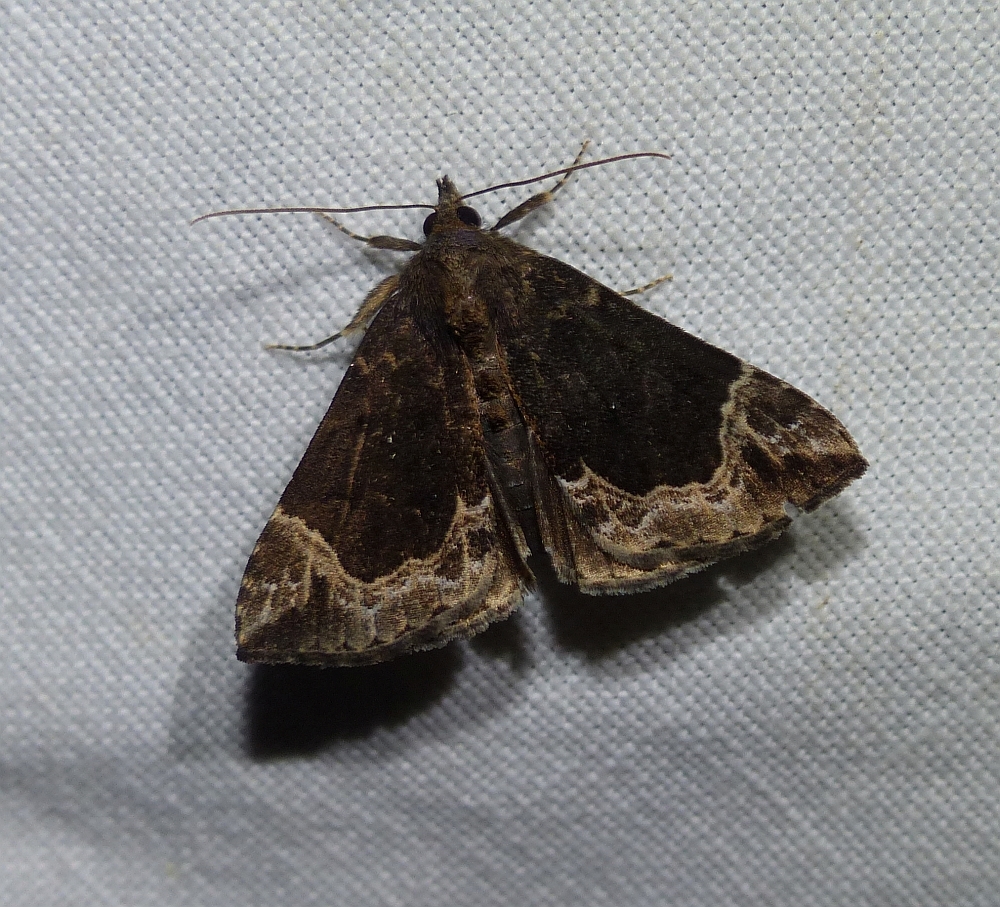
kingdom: Animalia
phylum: Arthropoda
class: Insecta
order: Lepidoptera
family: Erebidae
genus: Hypena
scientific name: Hypena abalienalis
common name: White-lined snout
